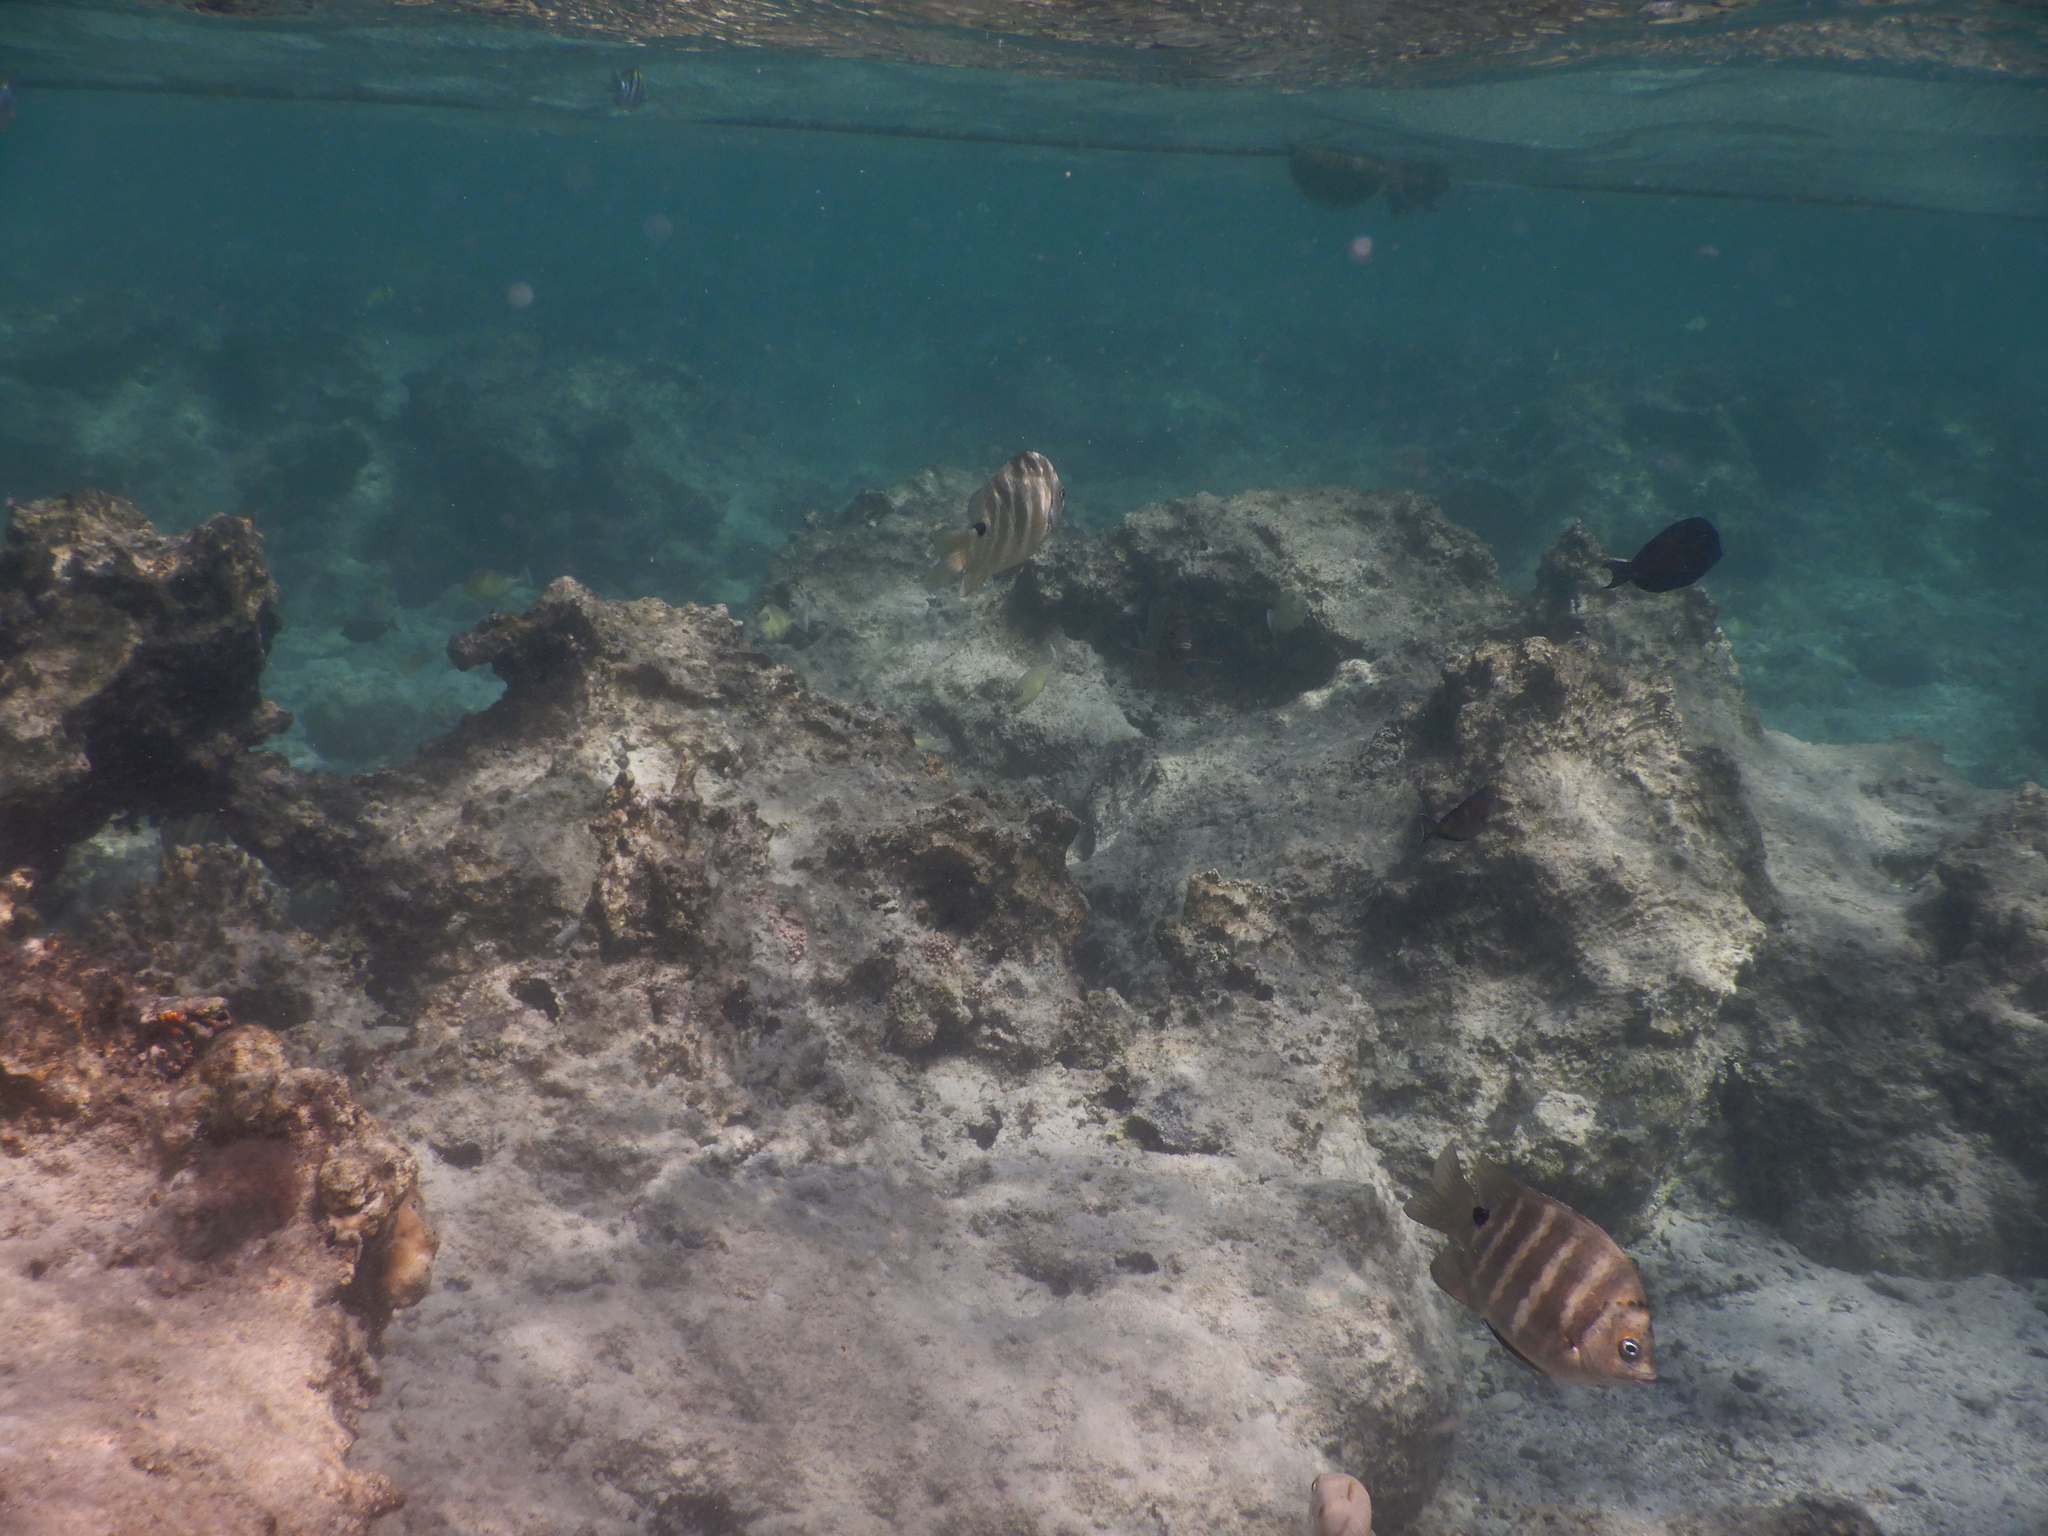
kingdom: Animalia
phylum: Chordata
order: Perciformes
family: Pomacentridae
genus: Abudefduf
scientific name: Abudefduf sordidus
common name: Blackspot sergeant
